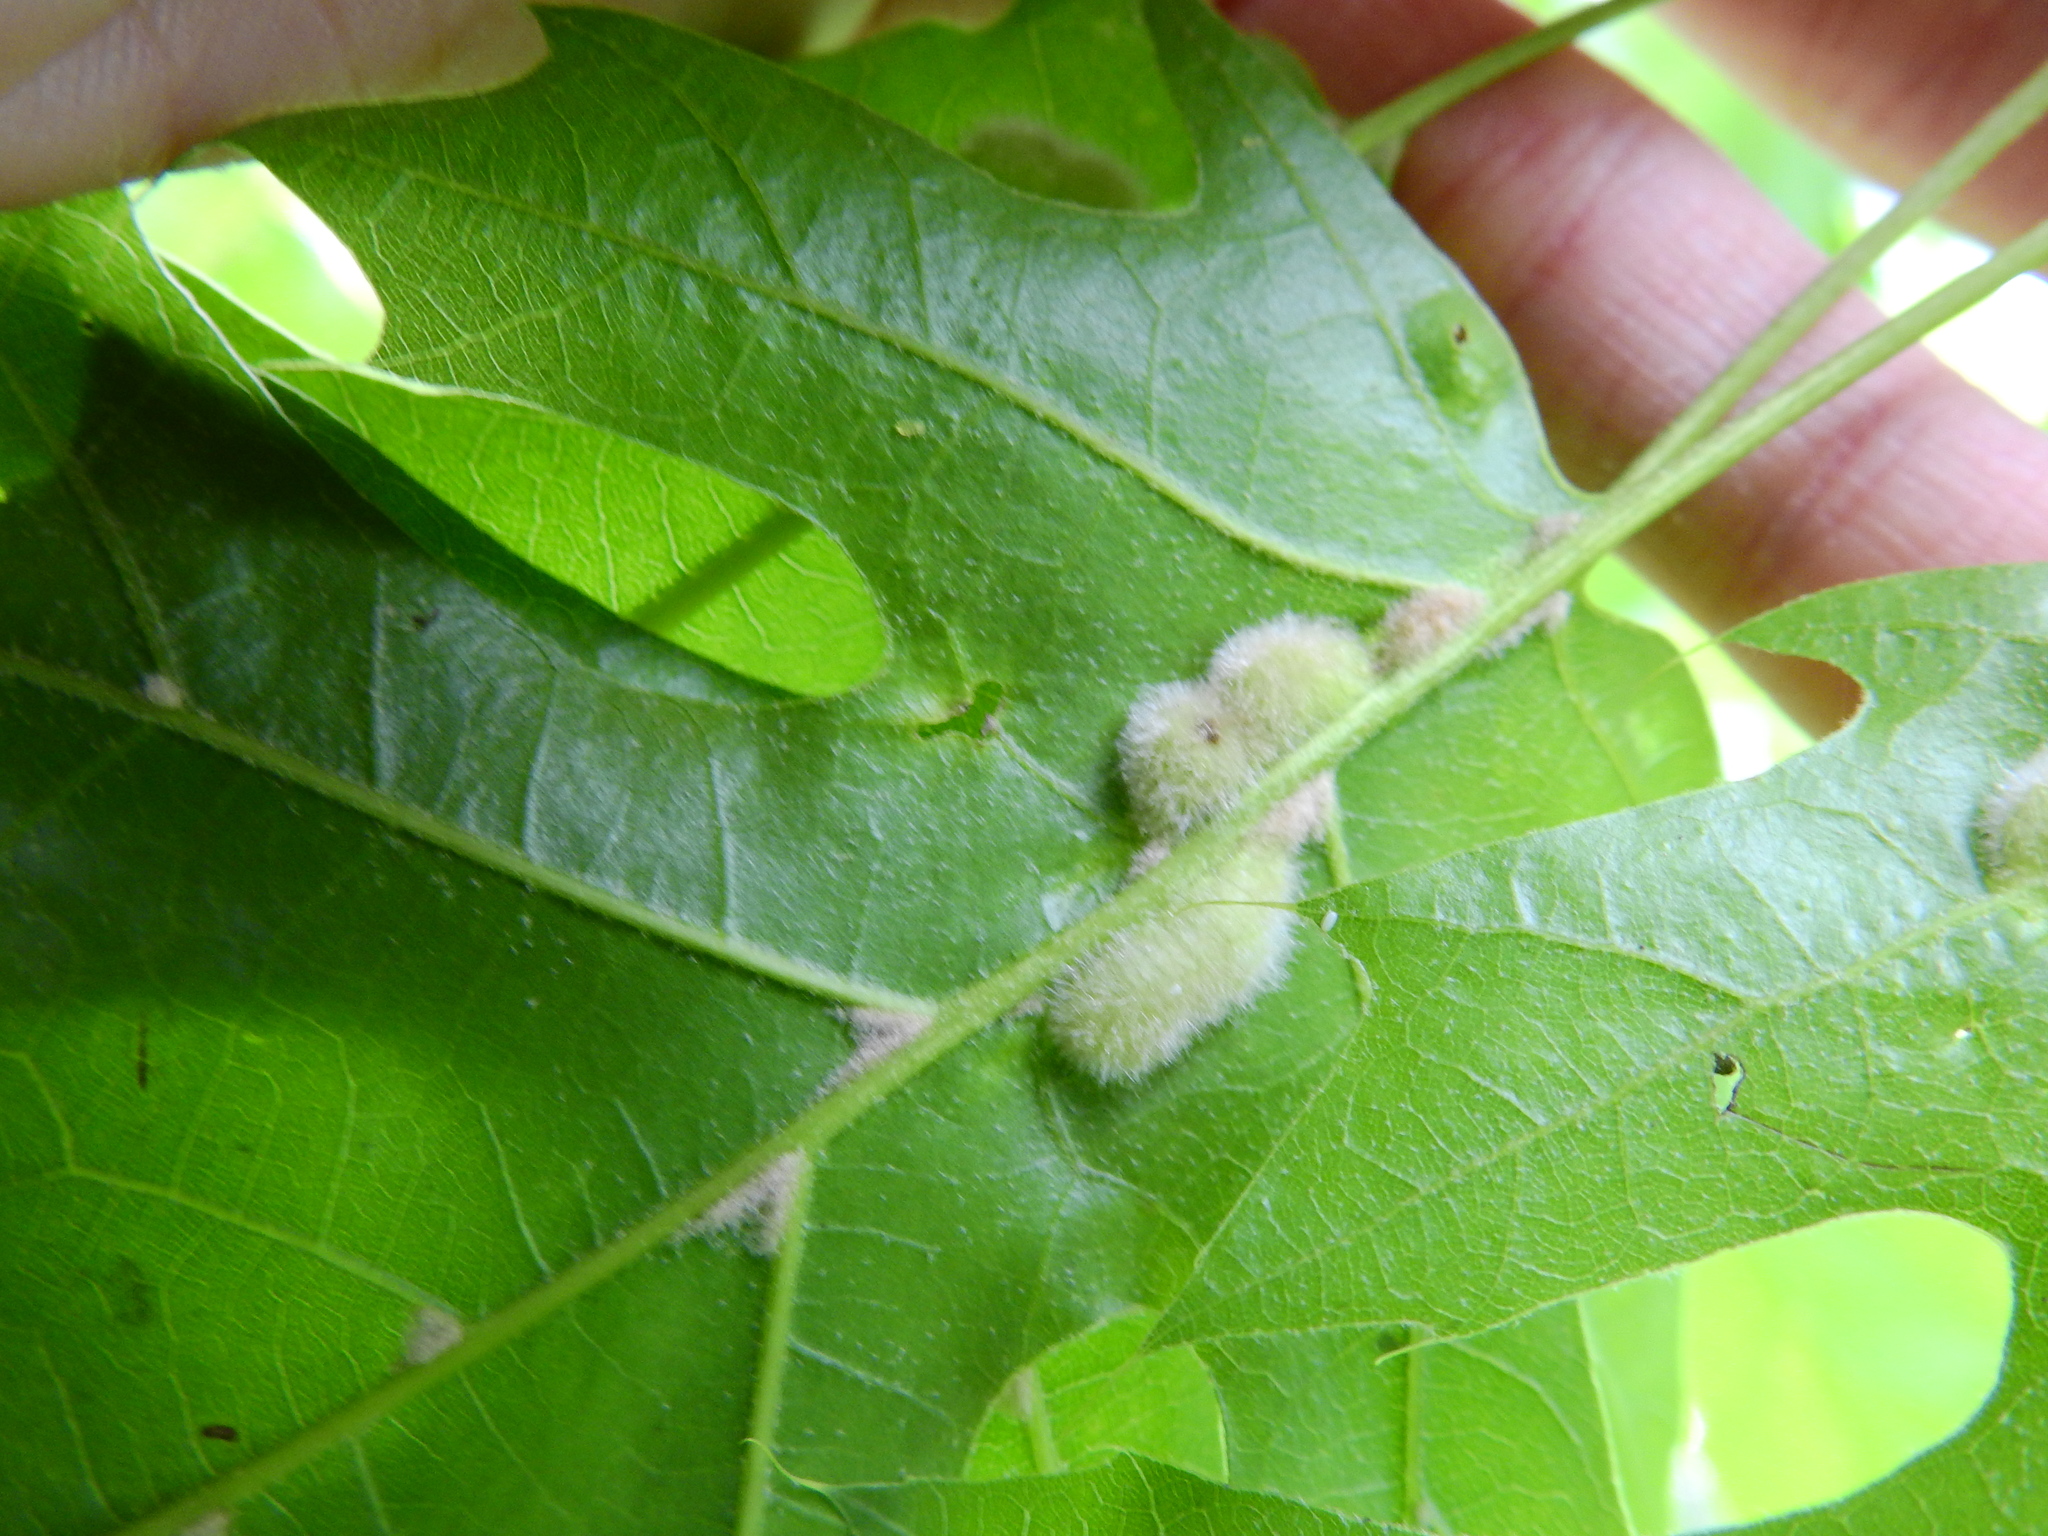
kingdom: Animalia
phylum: Arthropoda
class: Insecta
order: Diptera
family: Cecidomyiidae
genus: Macrodiplosis
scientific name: Macrodiplosis niveipila
